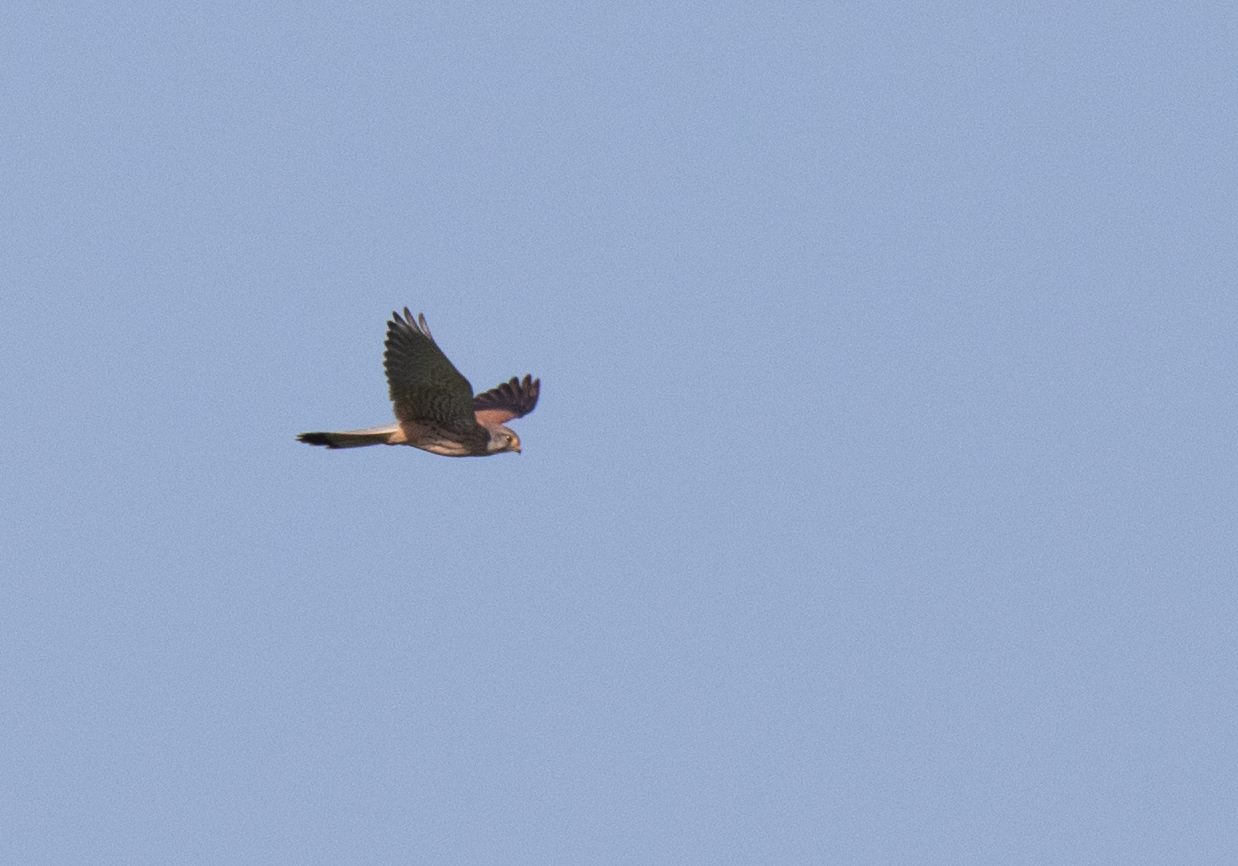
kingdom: Animalia
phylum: Chordata
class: Aves
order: Falconiformes
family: Falconidae
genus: Falco
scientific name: Falco tinnunculus
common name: Common kestrel
